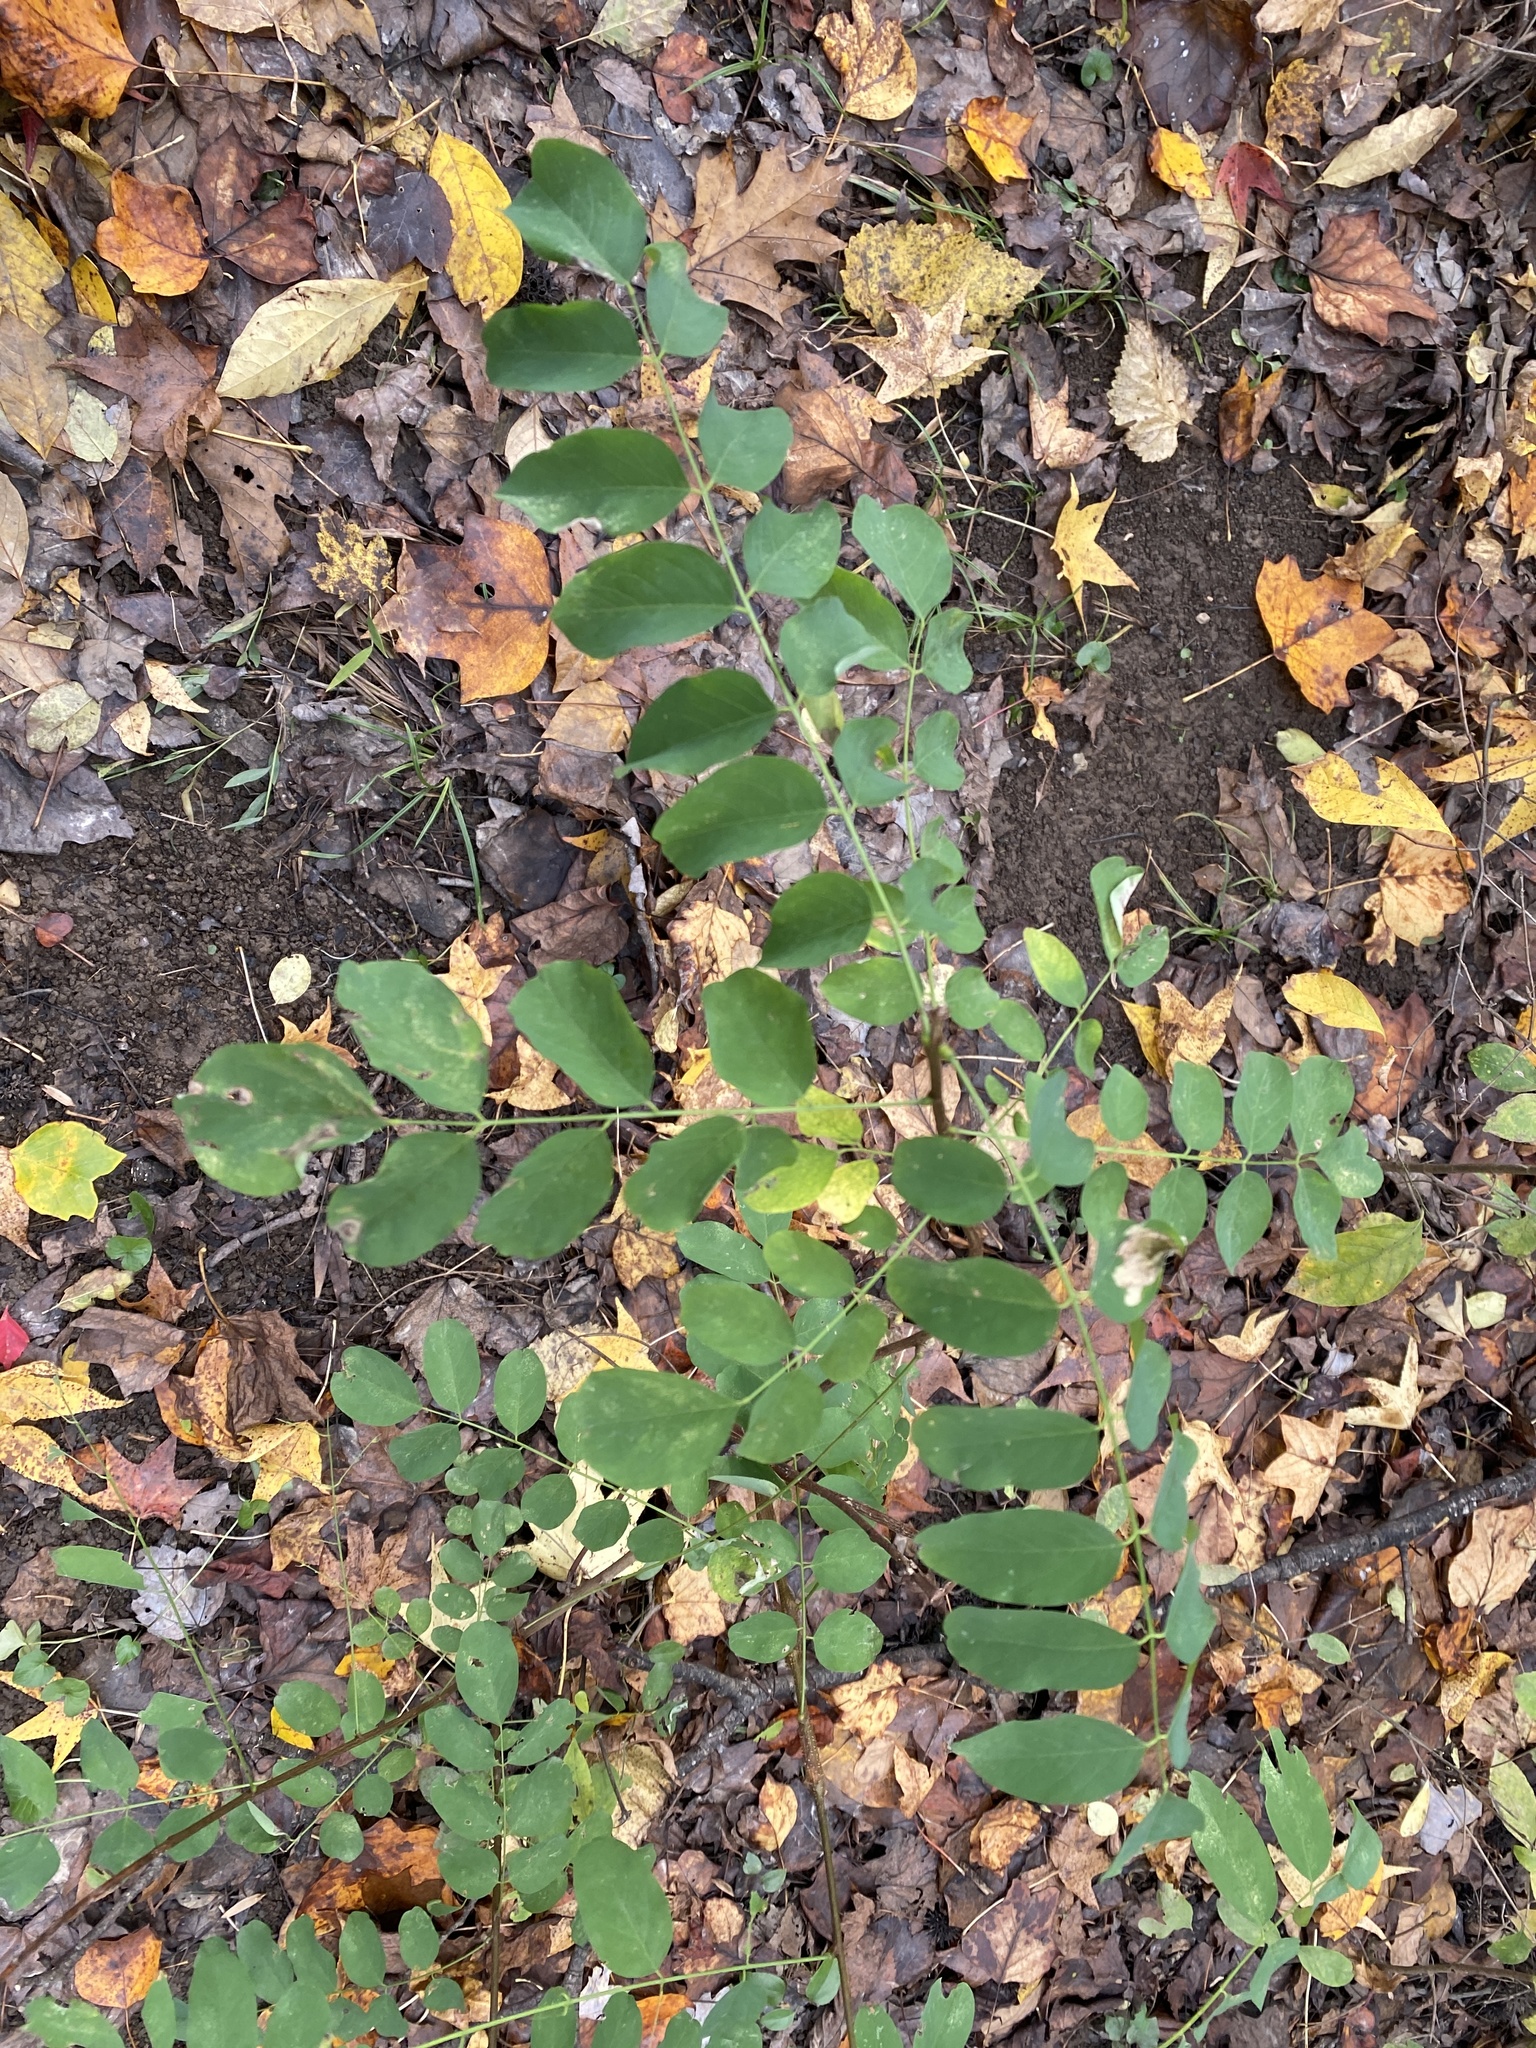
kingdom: Plantae
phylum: Tracheophyta
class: Magnoliopsida
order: Fabales
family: Fabaceae
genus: Robinia
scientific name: Robinia pseudoacacia
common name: Black locust
